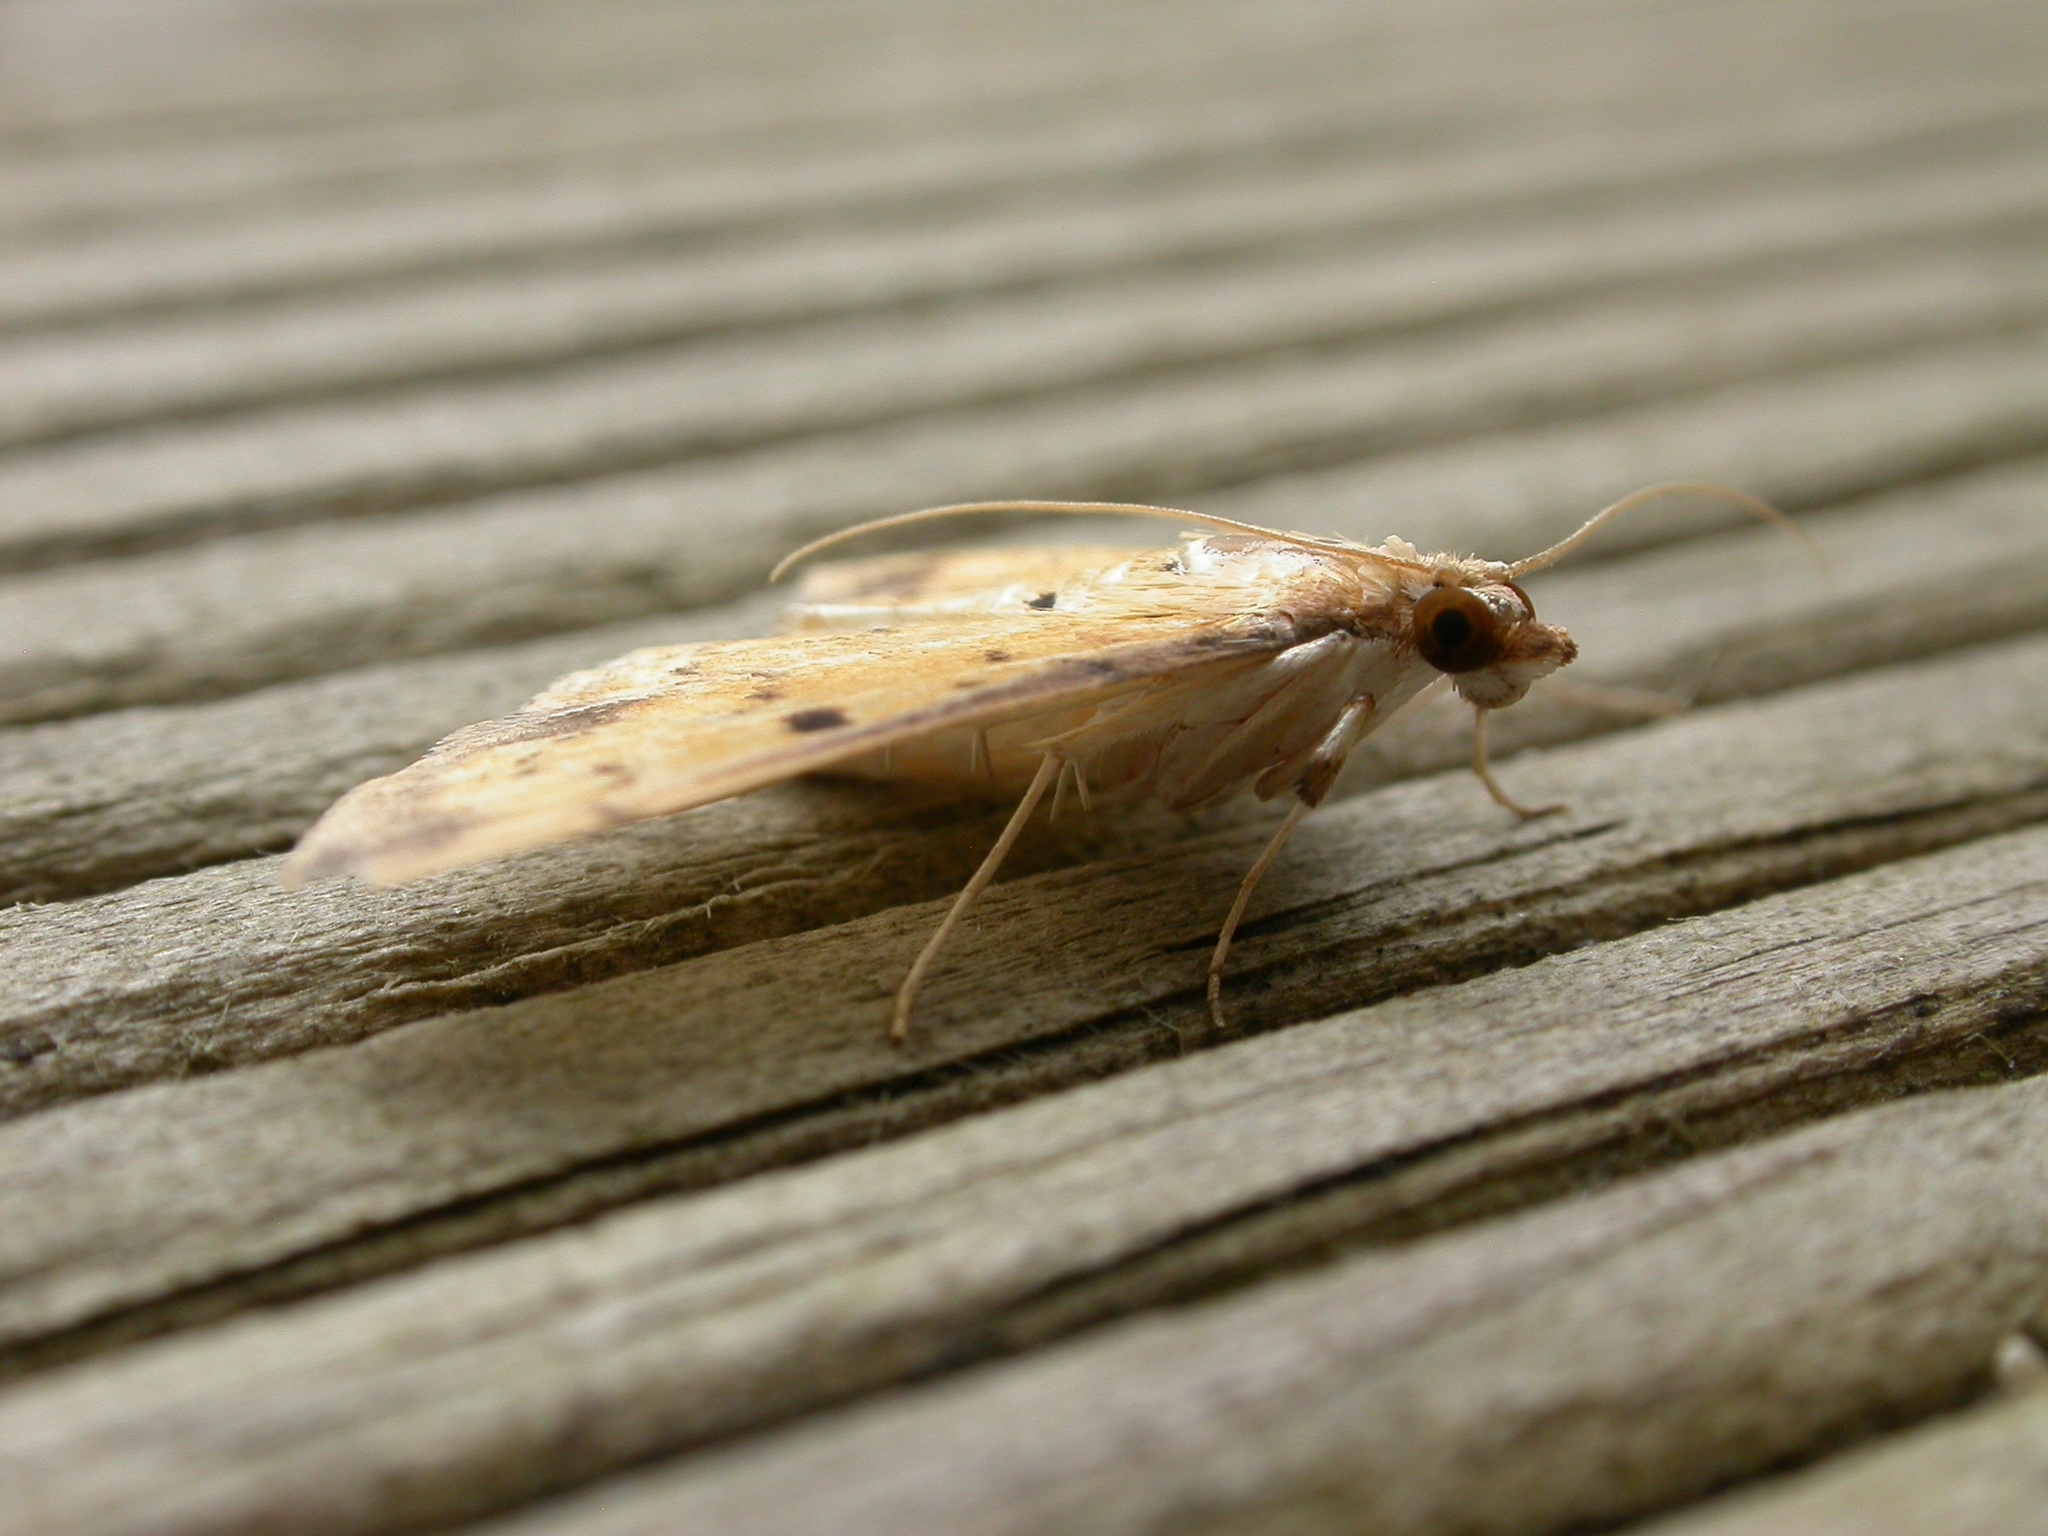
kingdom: Animalia
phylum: Arthropoda
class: Insecta
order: Lepidoptera
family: Crambidae
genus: Herpetogramma
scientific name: Herpetogramma cynaralis
